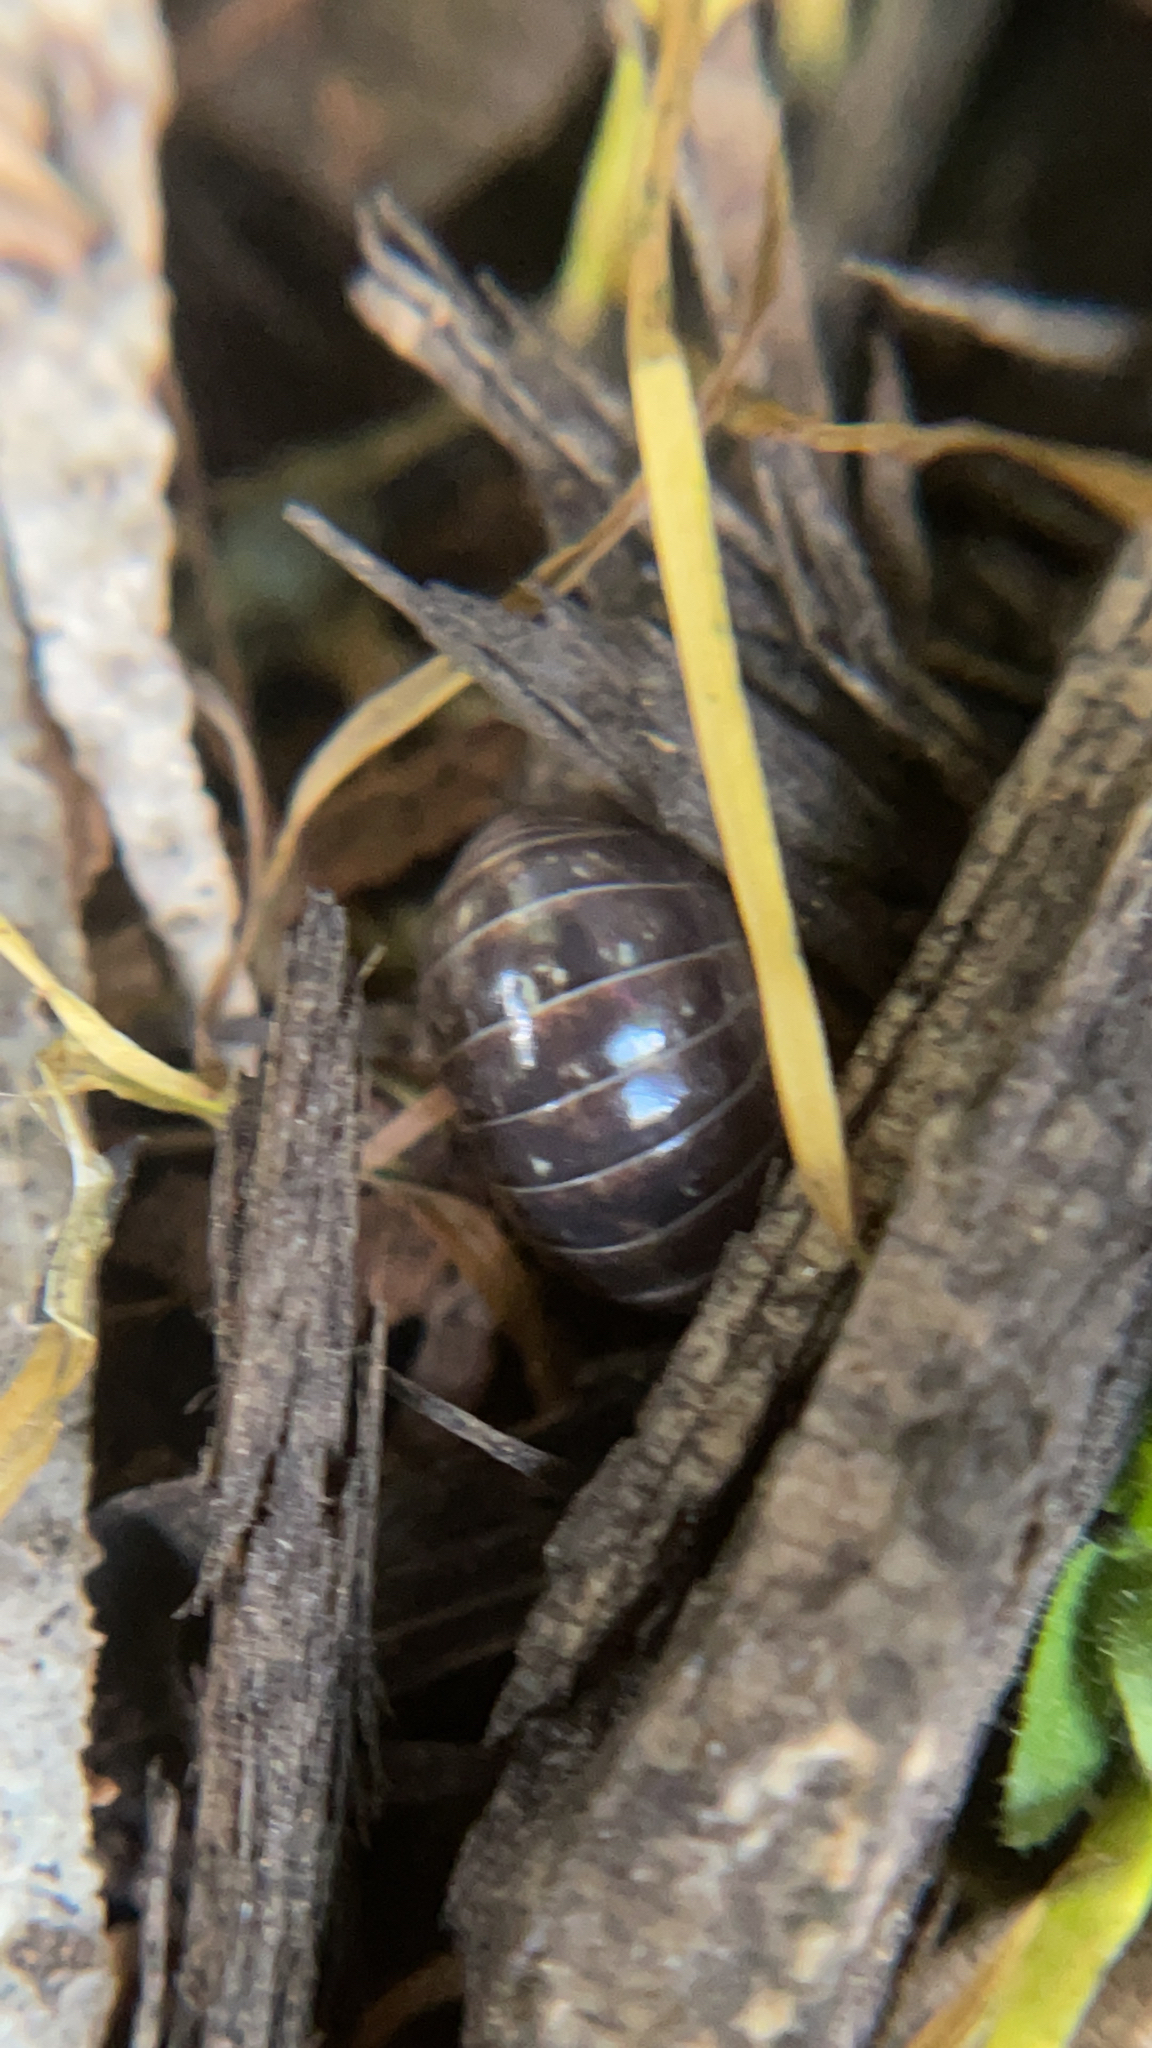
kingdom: Animalia
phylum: Arthropoda
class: Malacostraca
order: Isopoda
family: Armadillidiidae
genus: Armadillidium
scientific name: Armadillidium vulgare
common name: Common pill woodlouse
